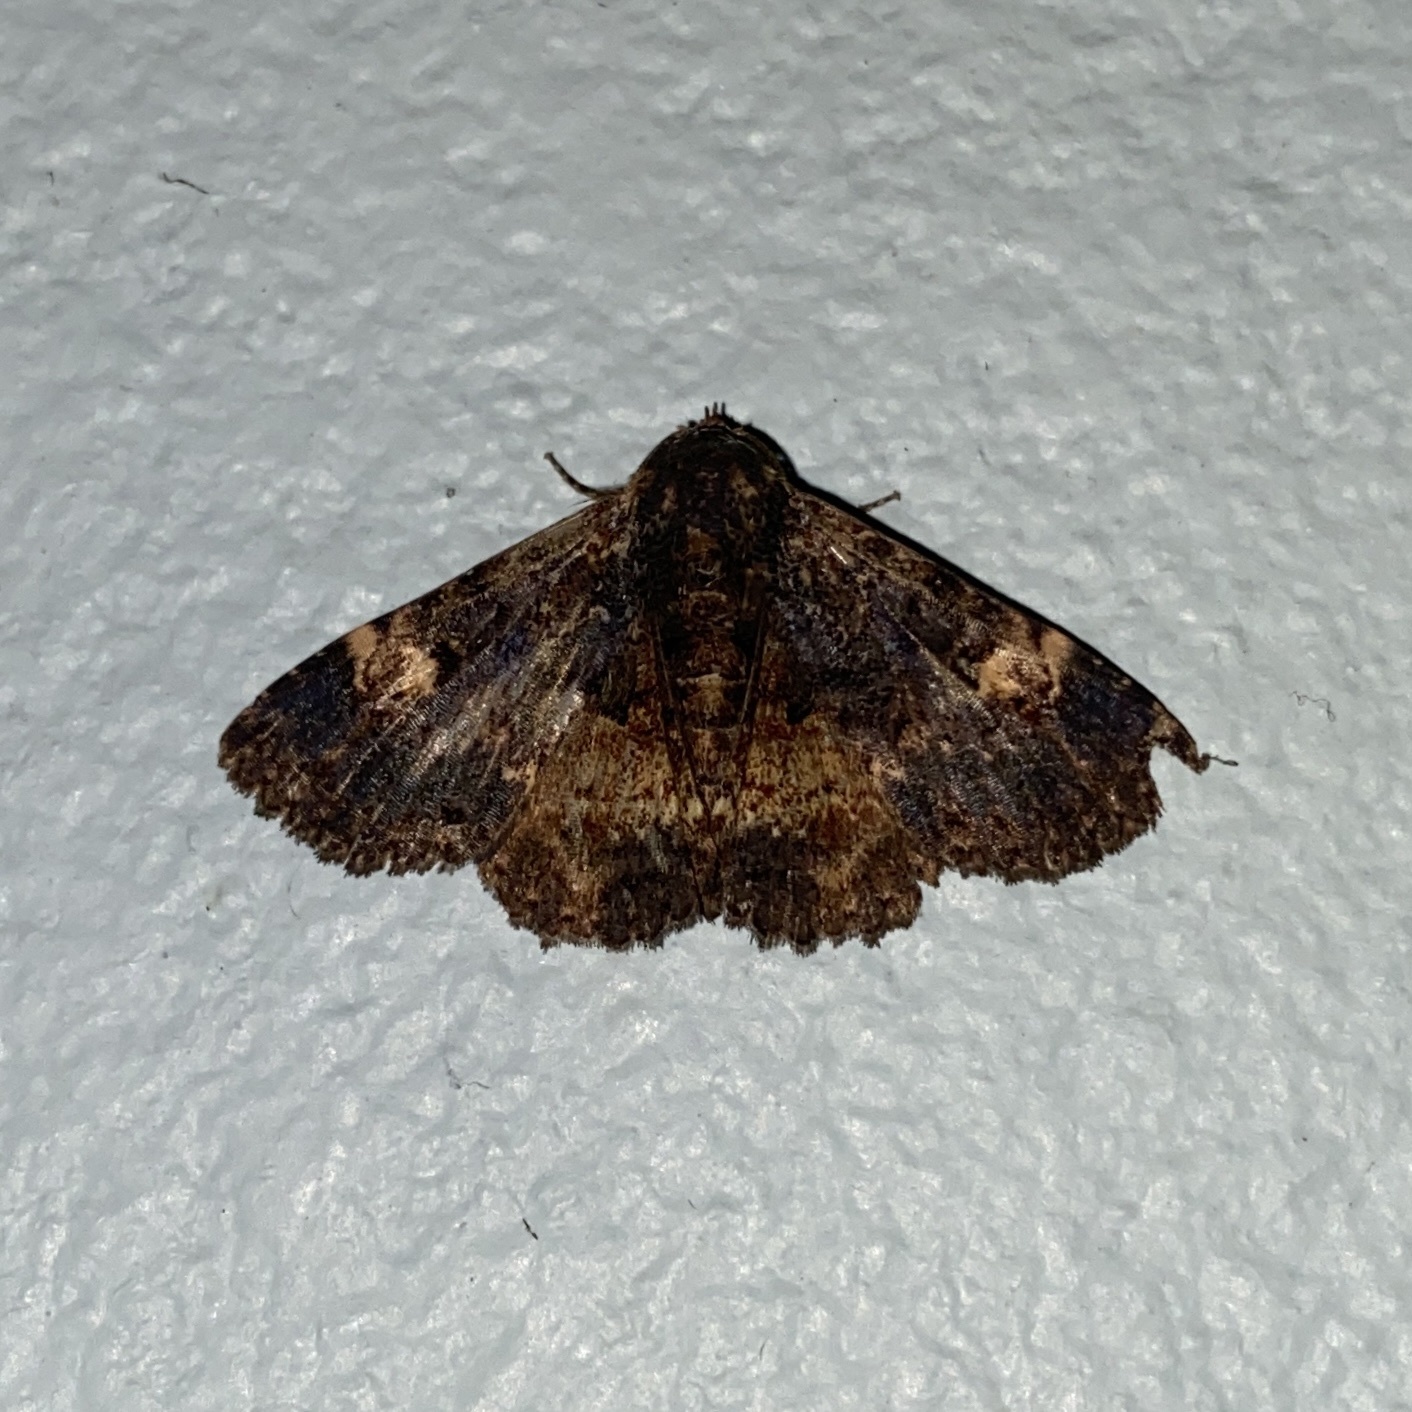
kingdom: Animalia
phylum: Arthropoda
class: Insecta
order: Lepidoptera
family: Erebidae
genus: Metalectra
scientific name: Metalectra carneomacula
